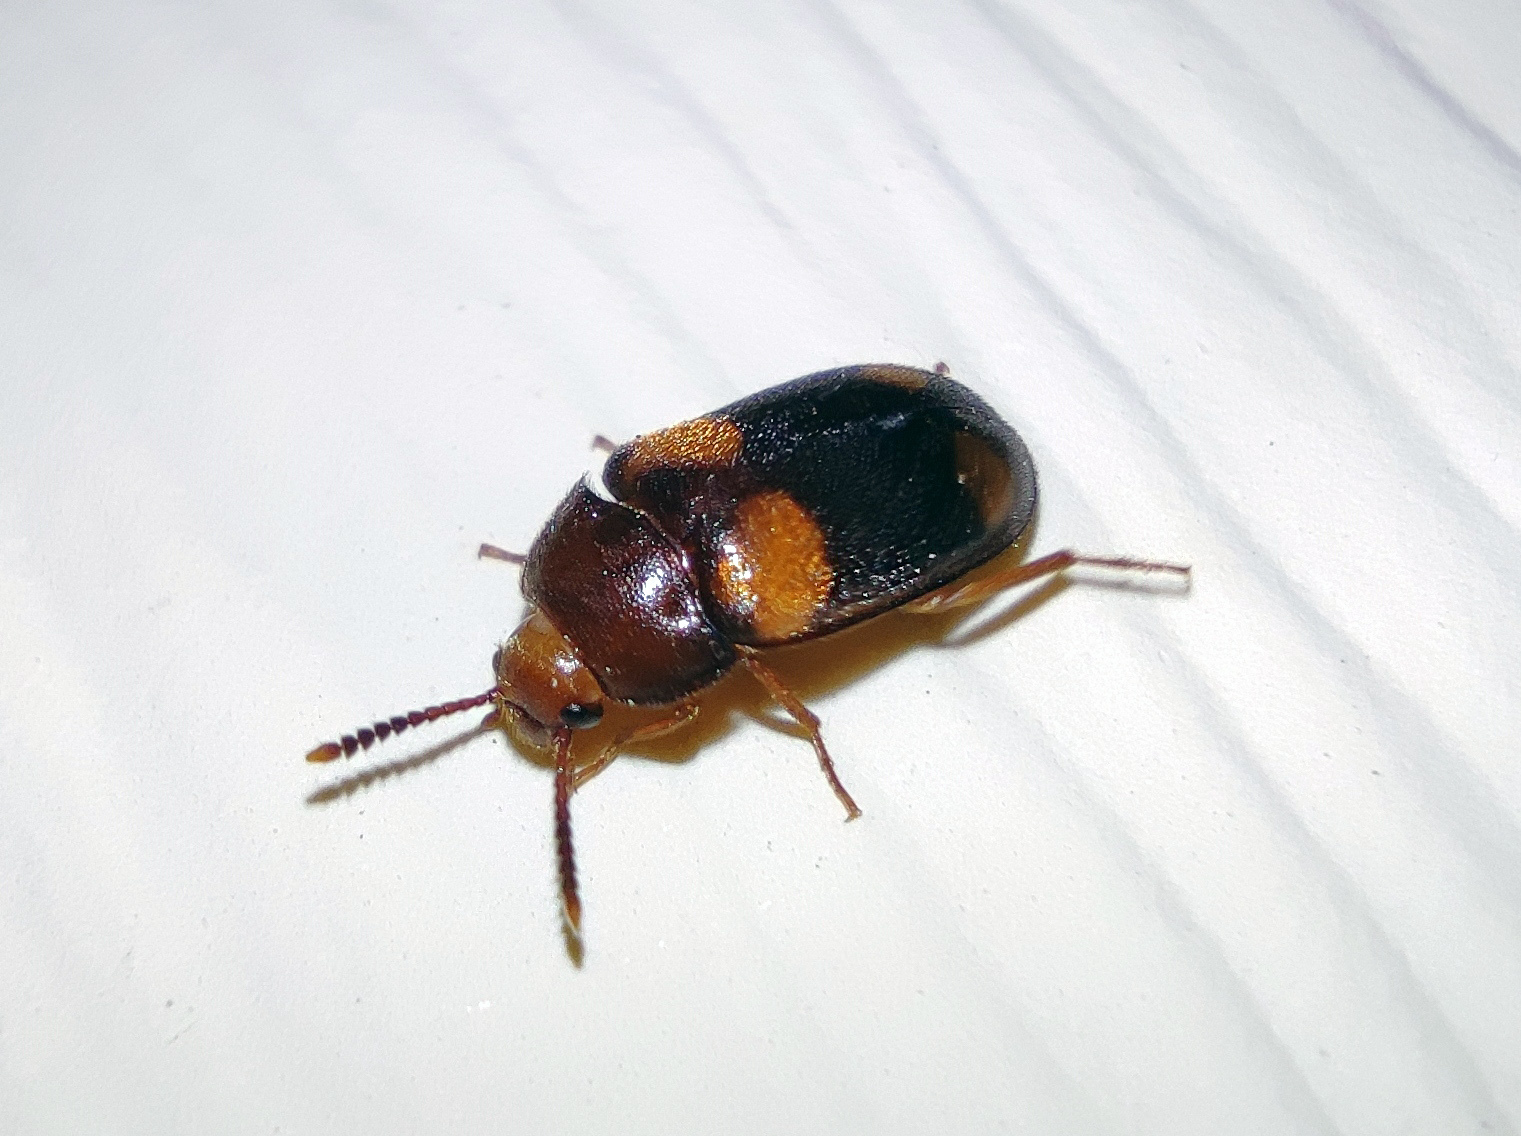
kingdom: Animalia
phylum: Arthropoda
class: Insecta
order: Coleoptera
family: Mycetophagidae
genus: Mycetophagus
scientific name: Mycetophagus quadripustulatus
